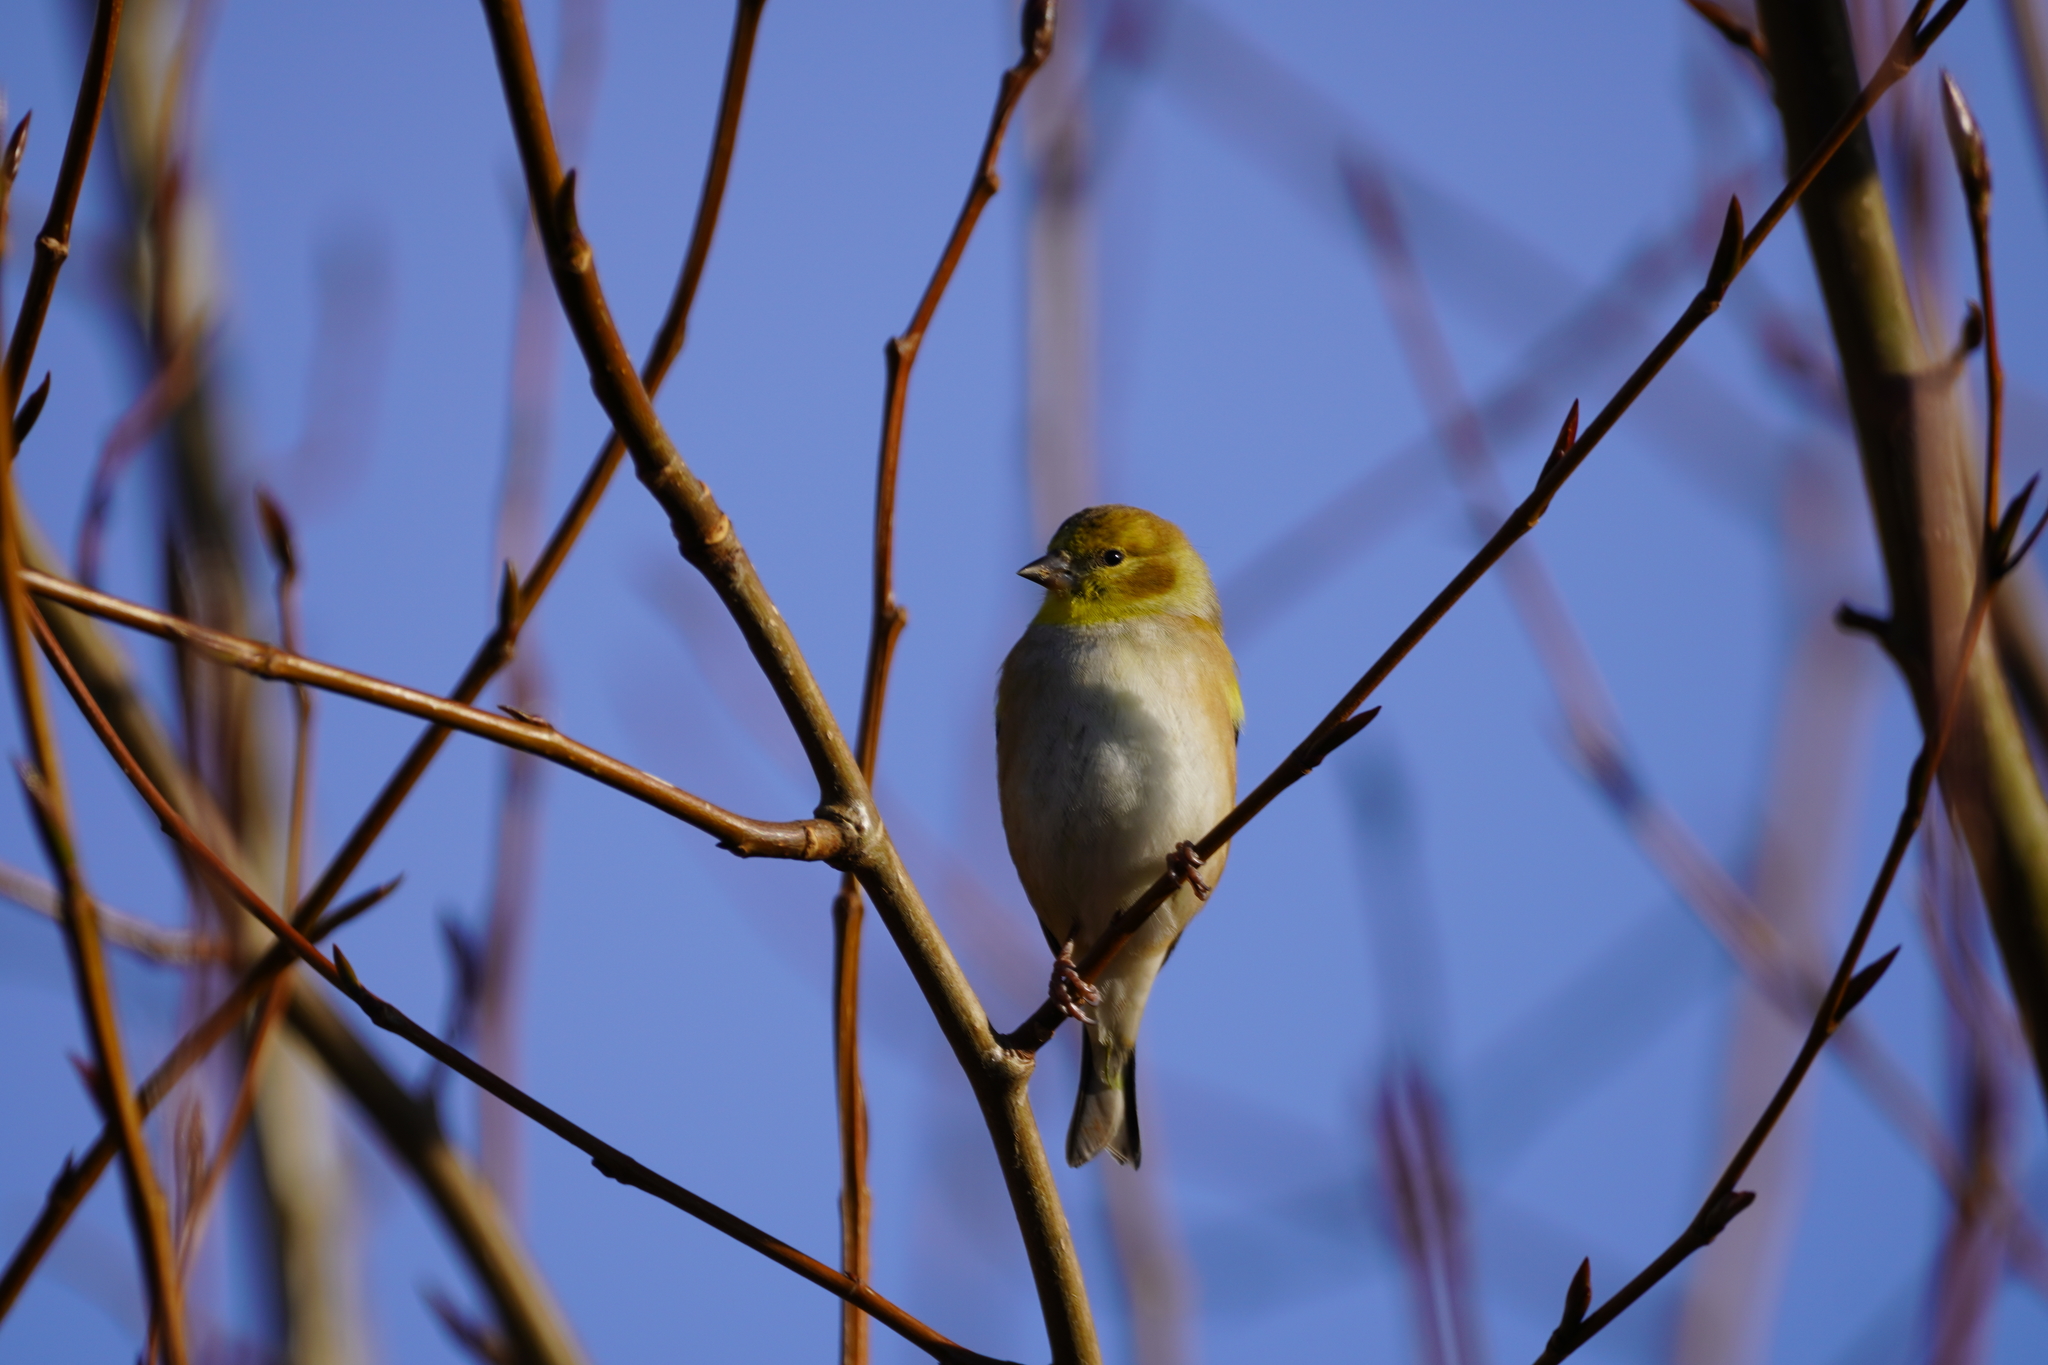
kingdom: Animalia
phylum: Chordata
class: Aves
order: Passeriformes
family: Fringillidae
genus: Spinus
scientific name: Spinus tristis
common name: American goldfinch
